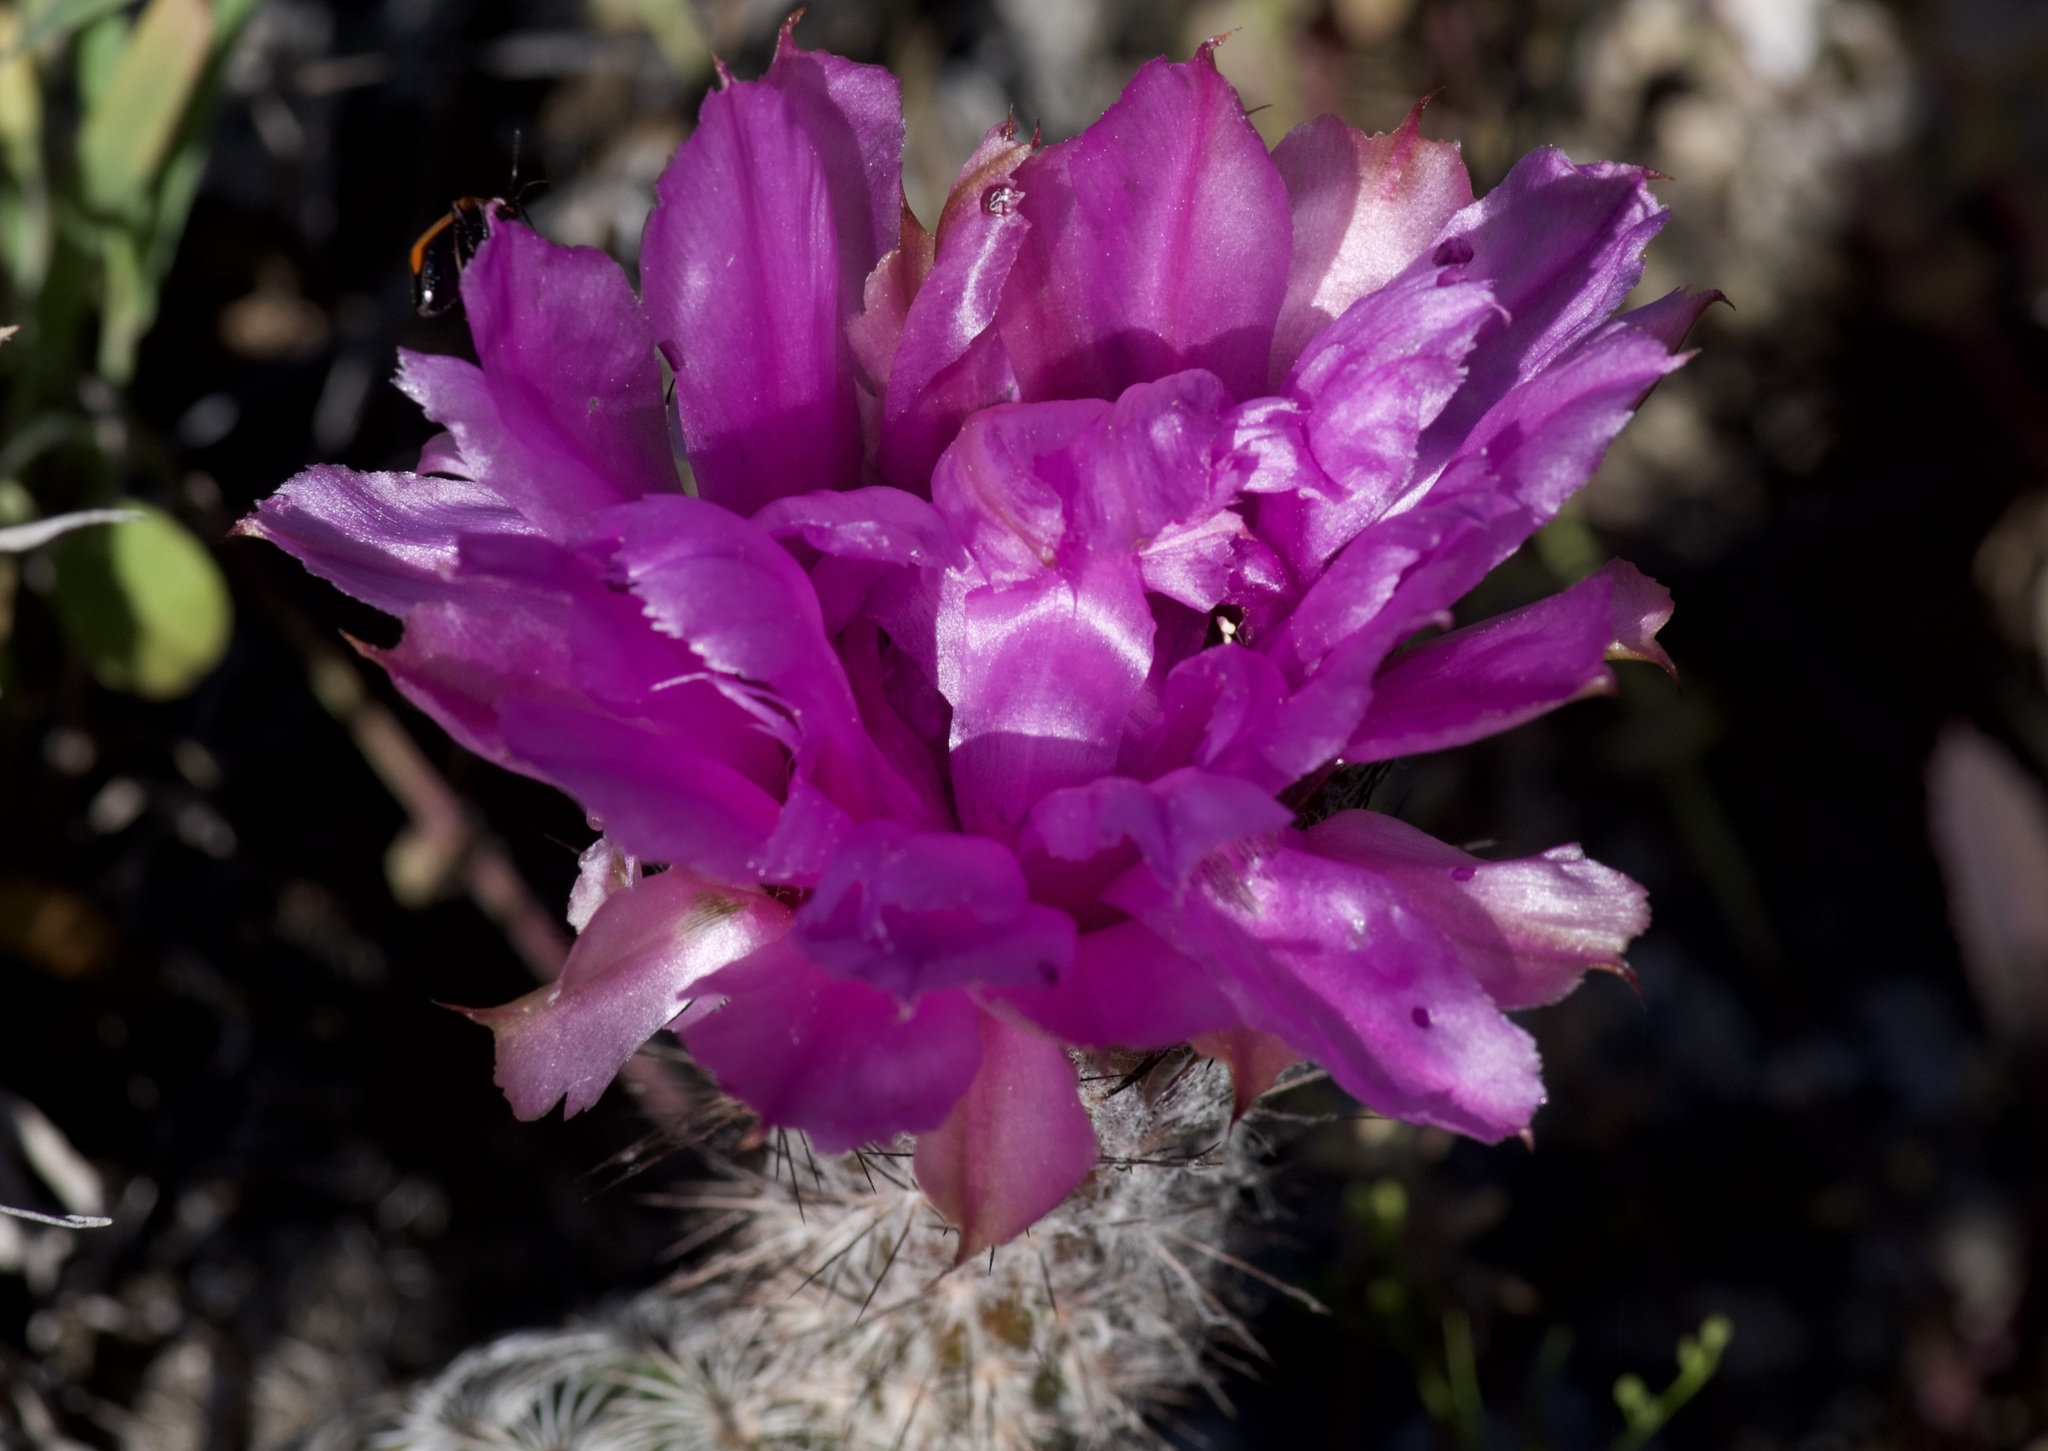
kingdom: Plantae
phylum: Tracheophyta
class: Magnoliopsida
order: Caryophyllales
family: Cactaceae
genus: Echinocereus
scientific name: Echinocereus reichenbachii
